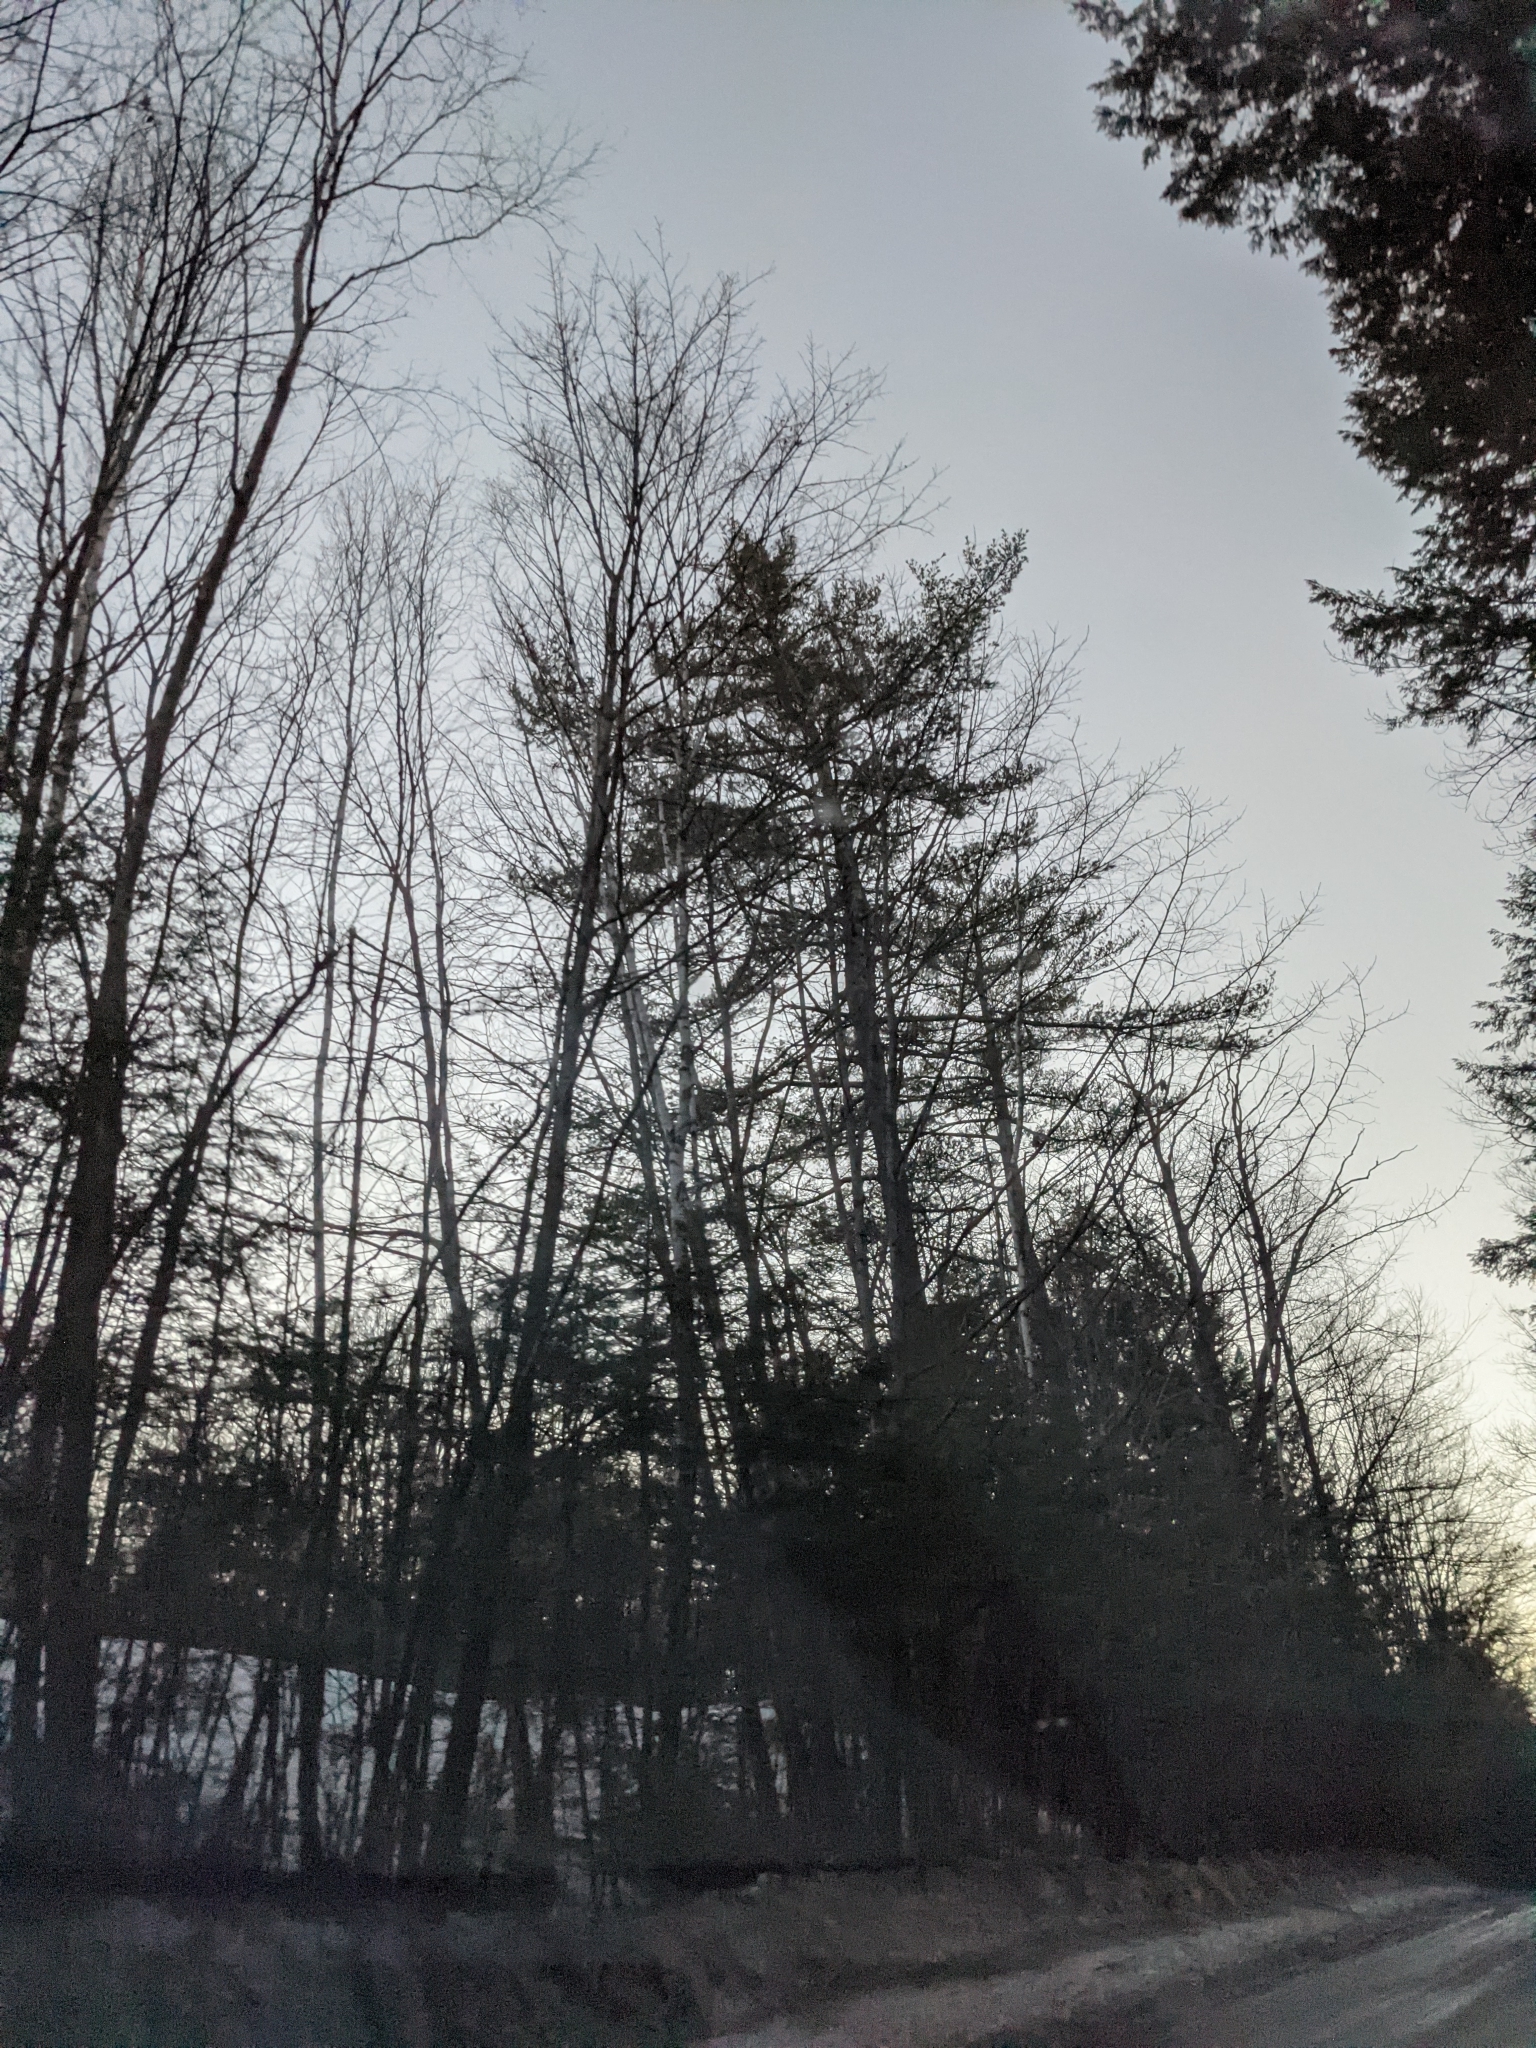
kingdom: Plantae
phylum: Tracheophyta
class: Pinopsida
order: Pinales
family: Pinaceae
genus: Pinus
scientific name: Pinus strobus
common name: Weymouth pine
